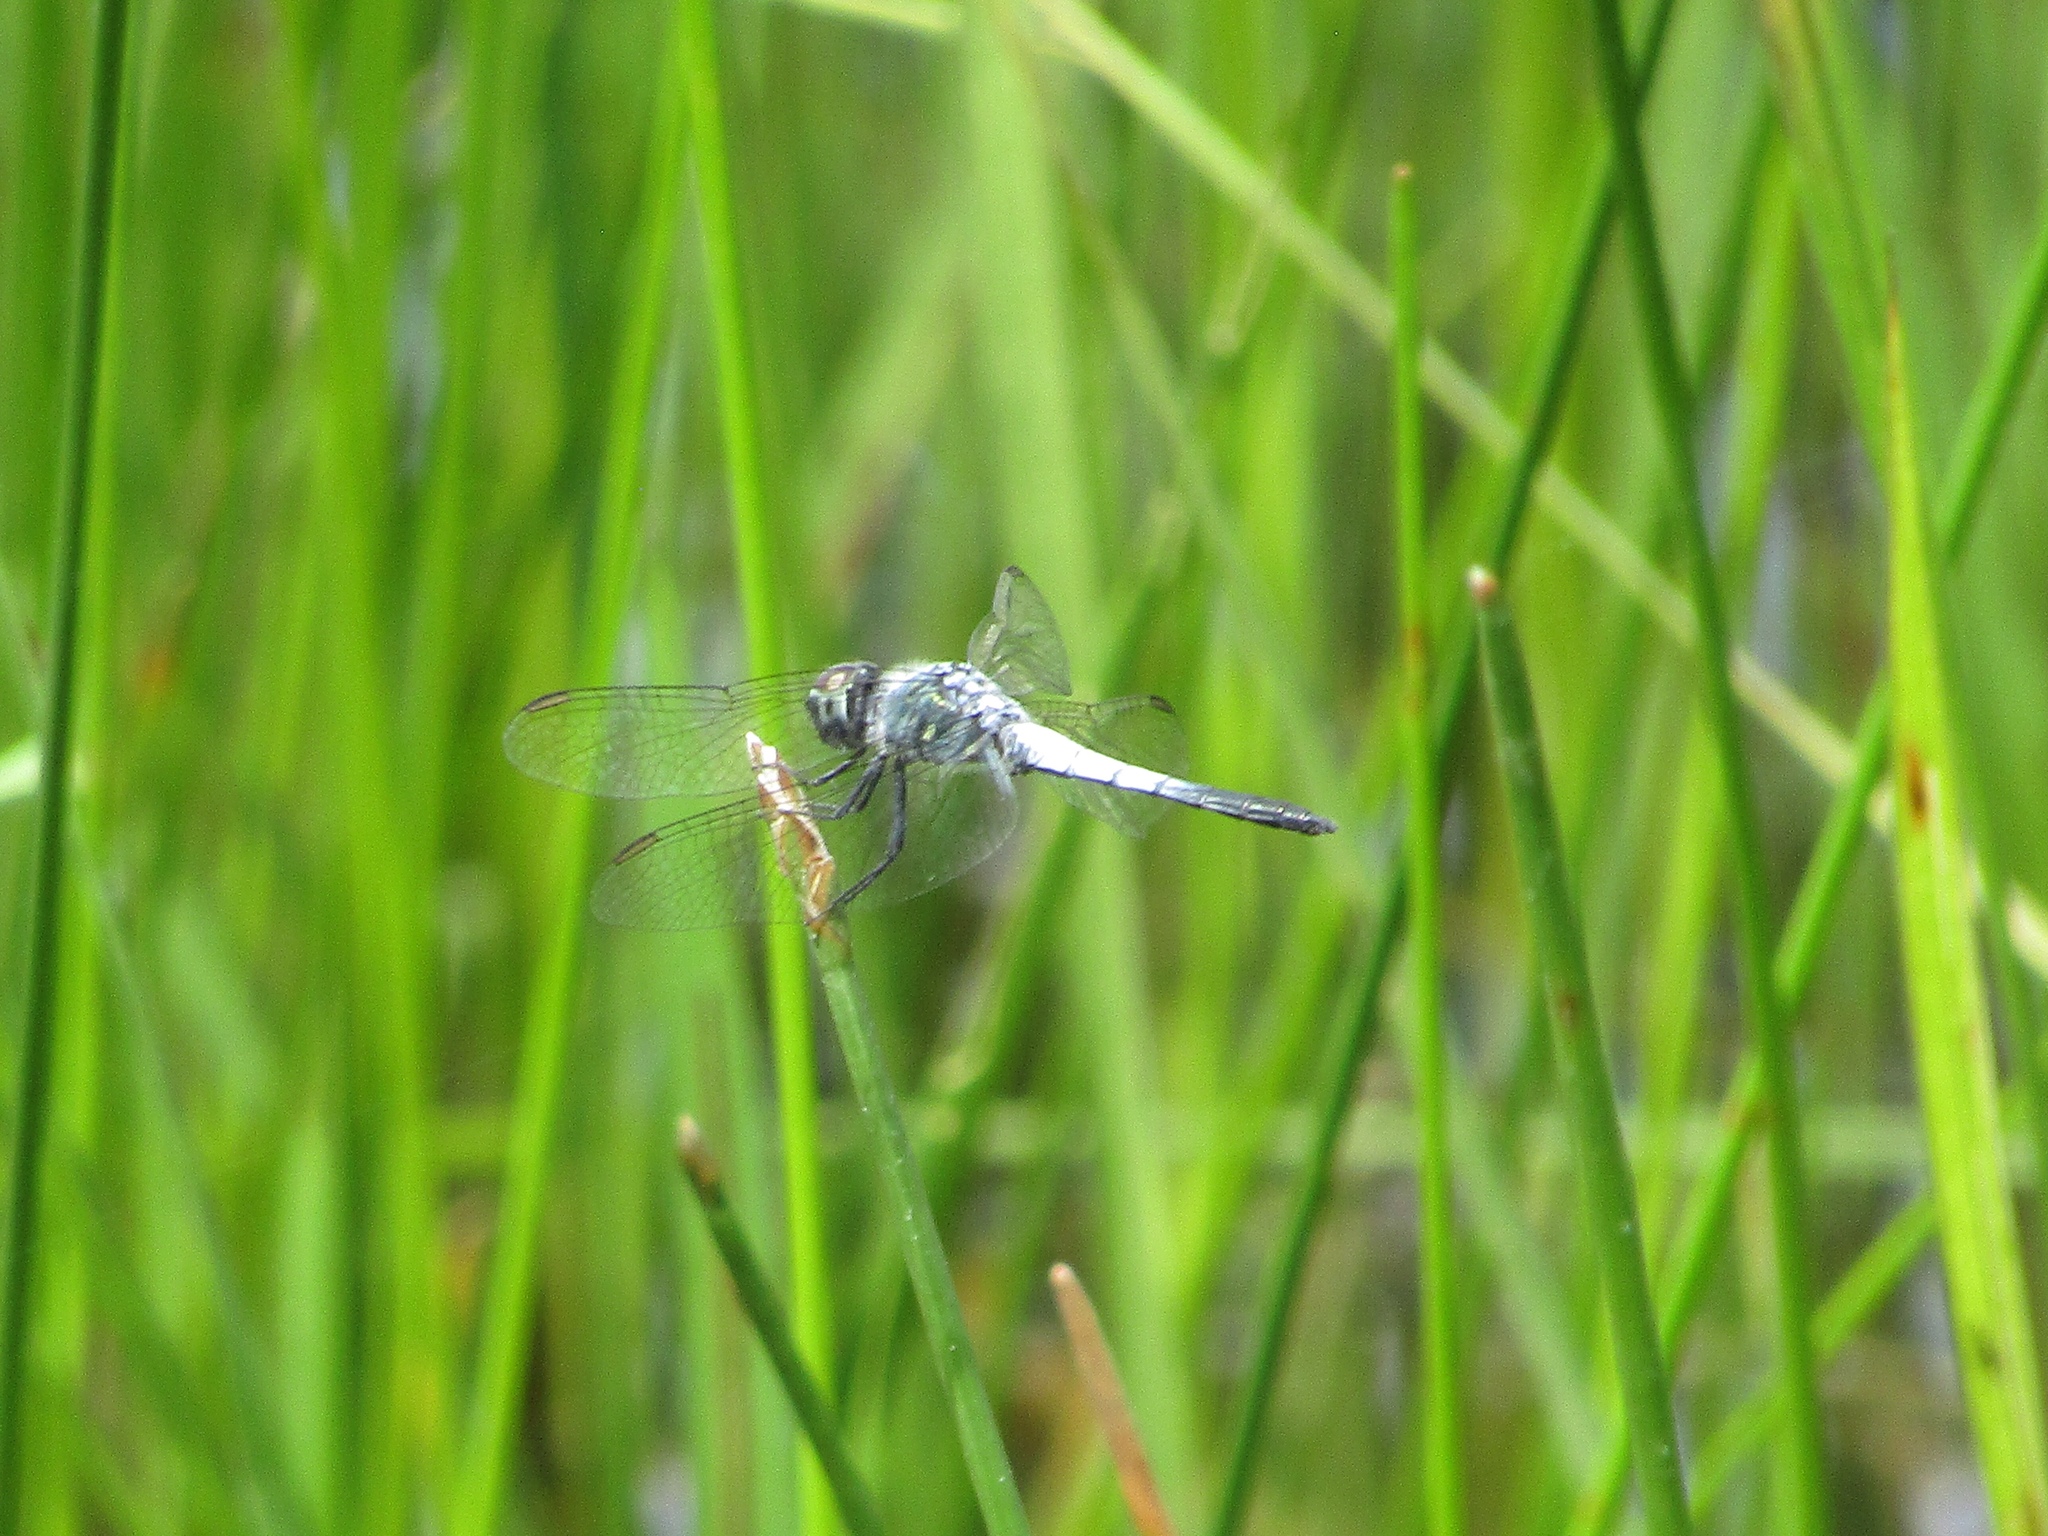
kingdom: Animalia
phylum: Arthropoda
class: Insecta
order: Odonata
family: Libellulidae
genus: Brachydiplax
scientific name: Brachydiplax sobrina
